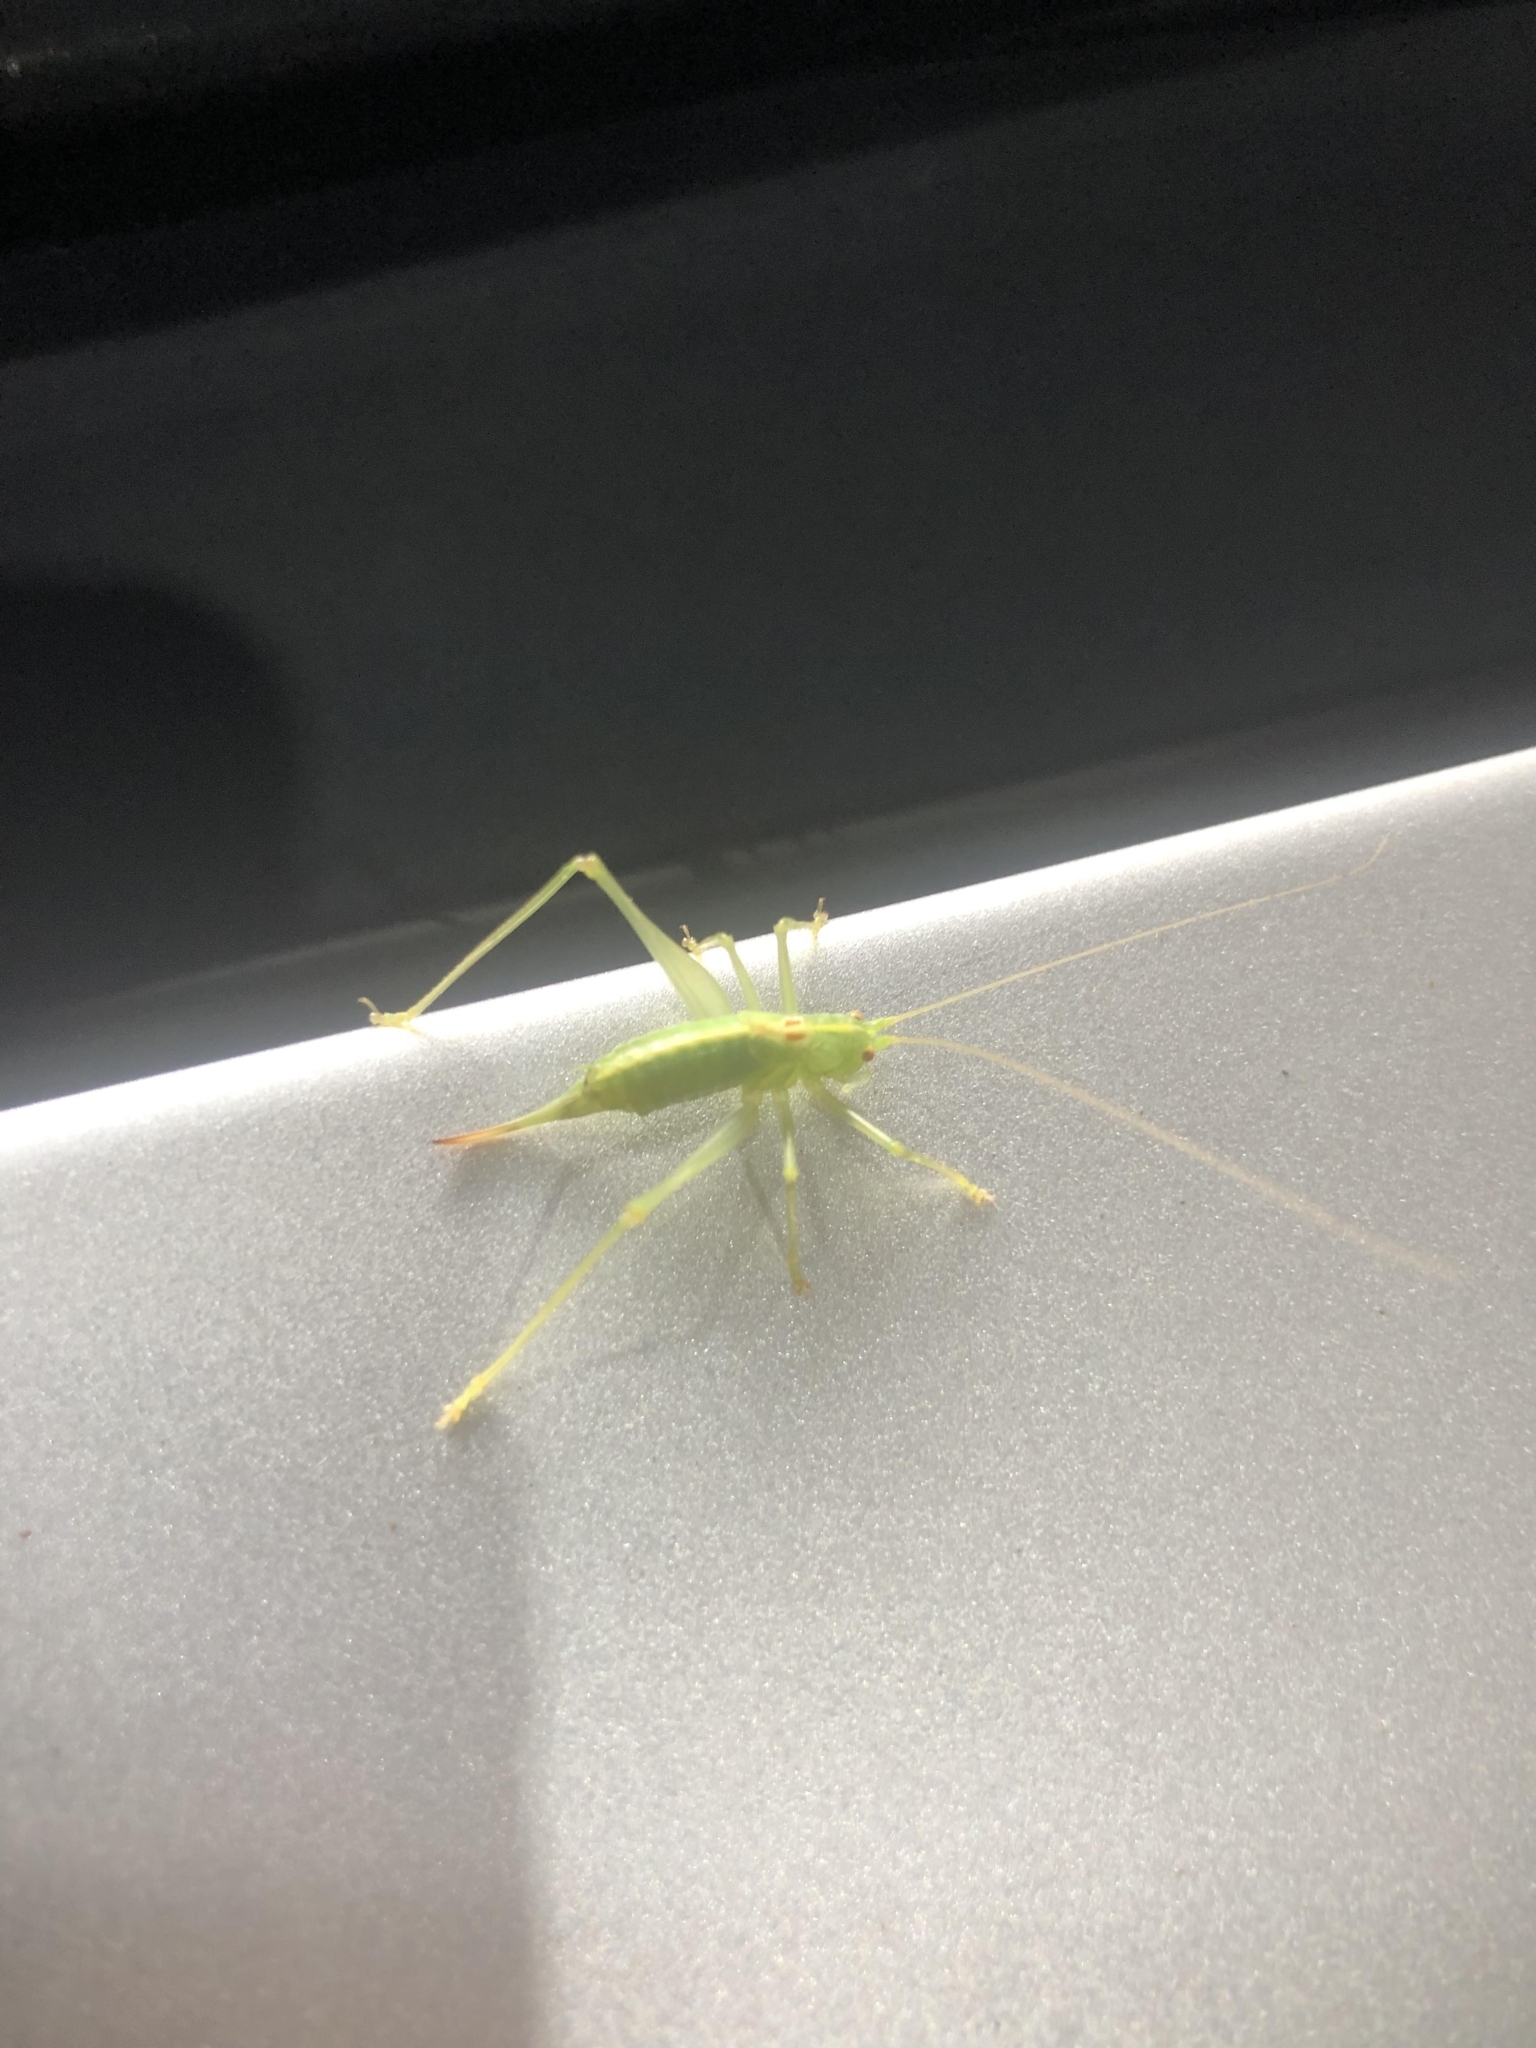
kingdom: Animalia
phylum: Arthropoda
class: Insecta
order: Orthoptera
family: Tettigoniidae
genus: Meconema
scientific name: Meconema meridionale
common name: Southern oak bush-cricket
